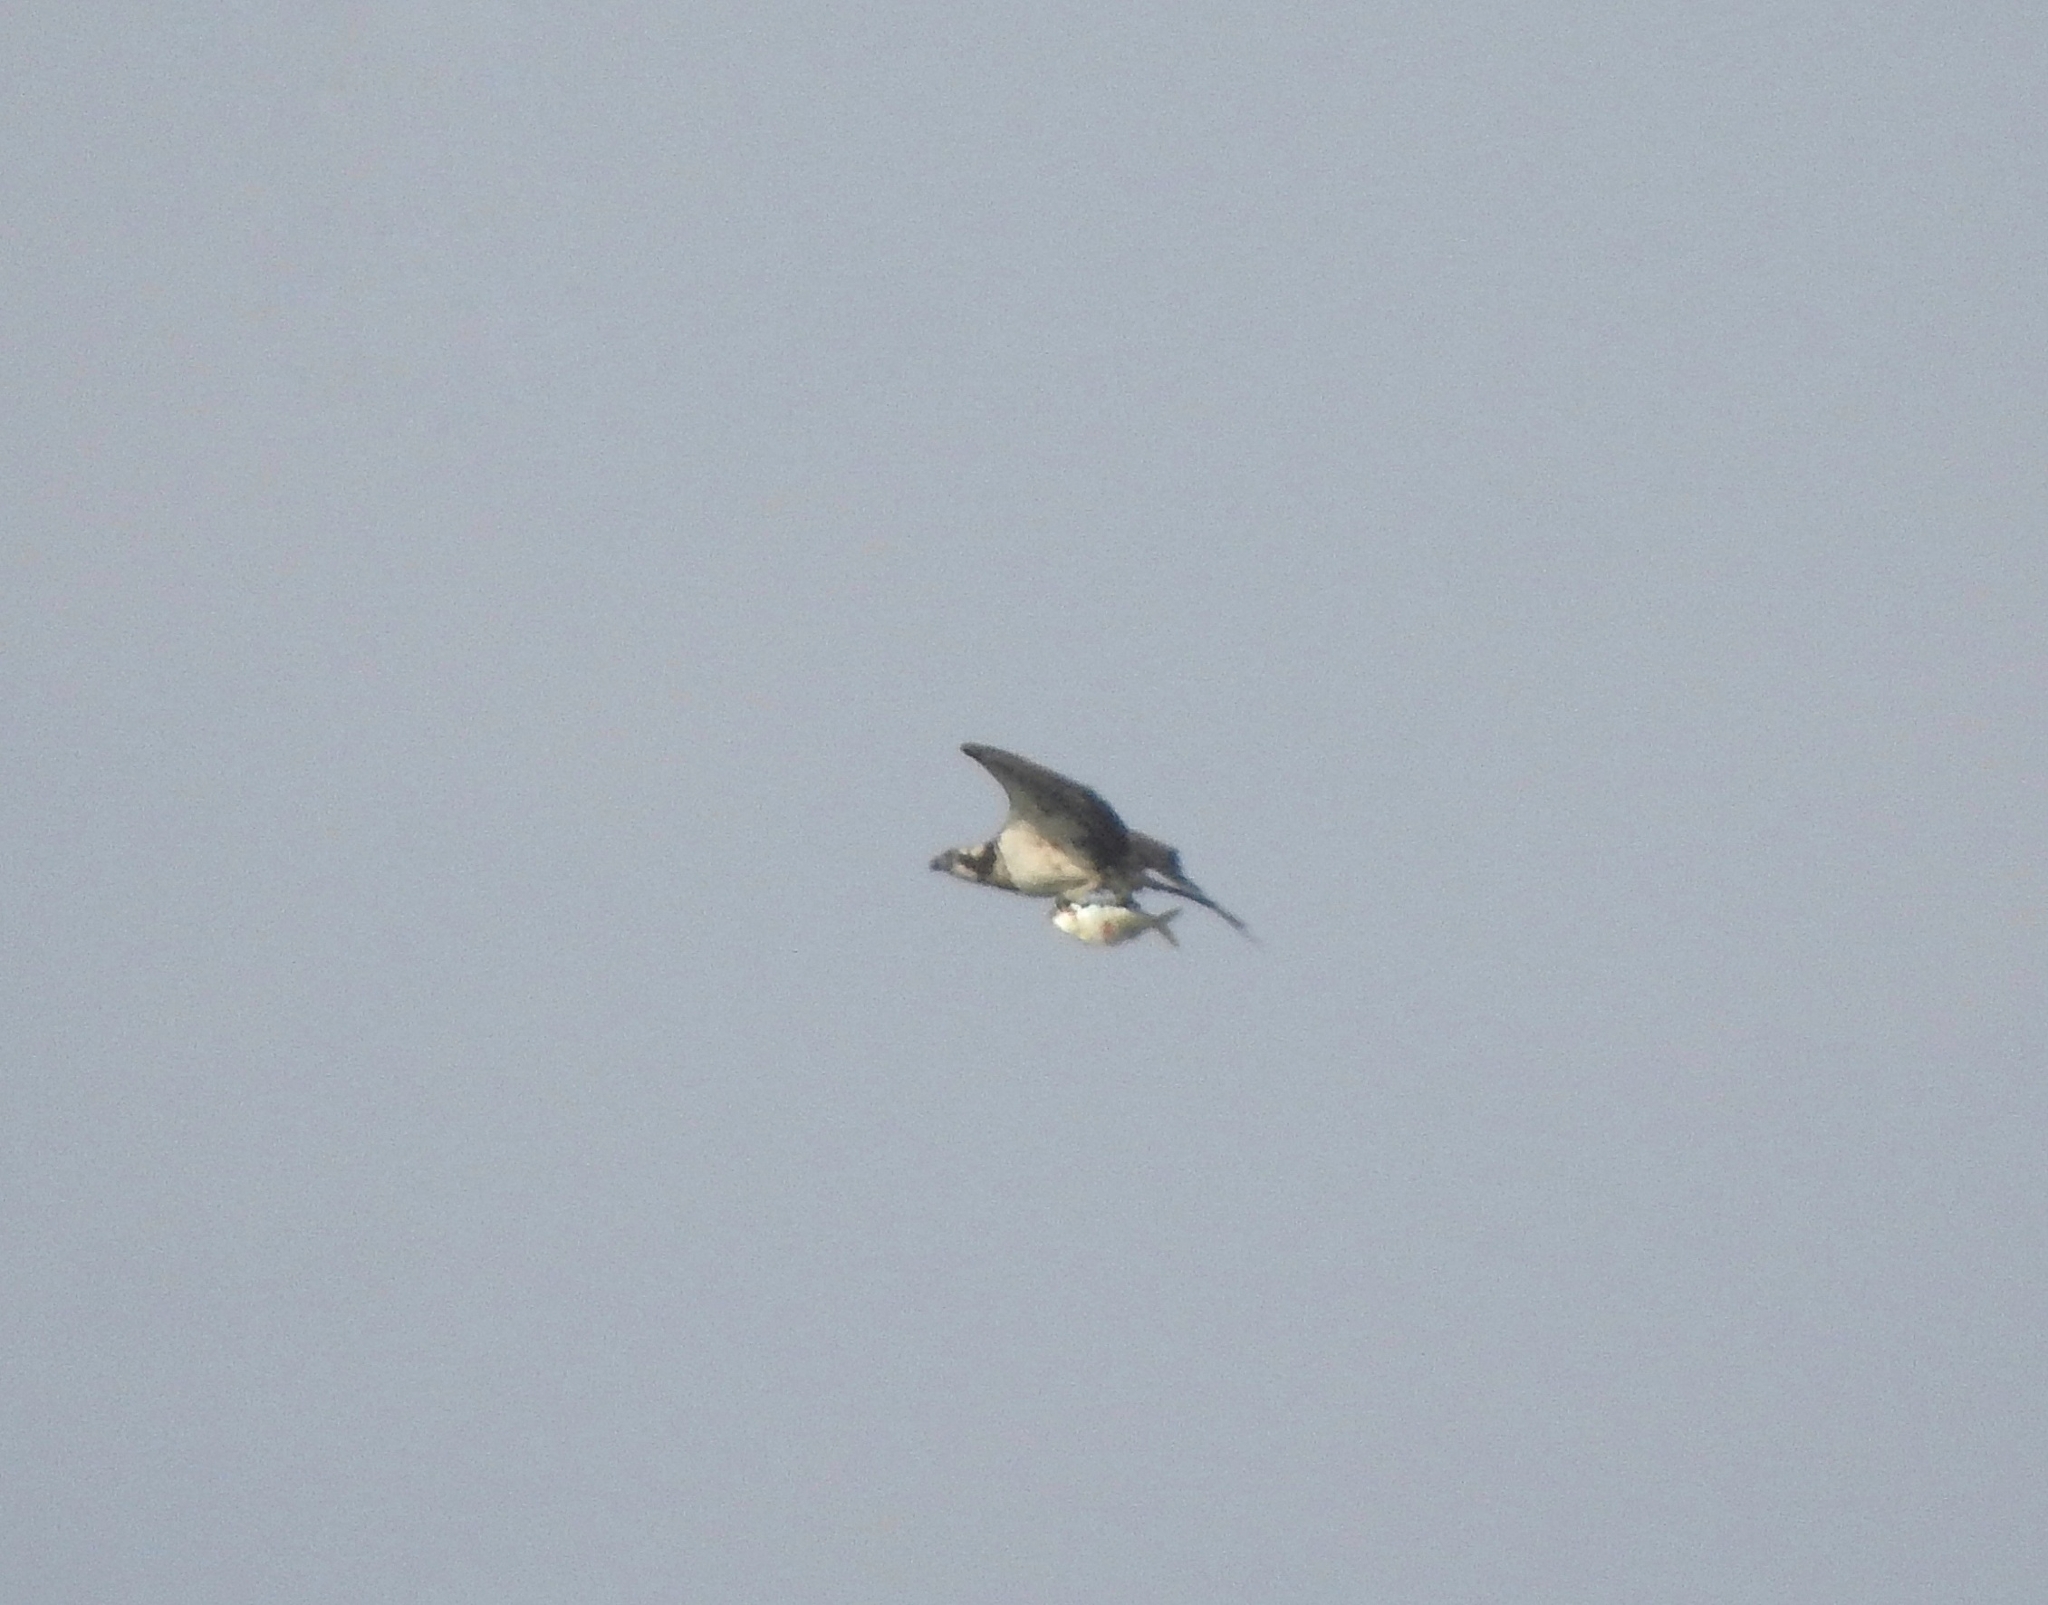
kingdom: Animalia
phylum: Chordata
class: Aves
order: Accipitriformes
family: Pandionidae
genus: Pandion
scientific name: Pandion haliaetus
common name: Osprey
